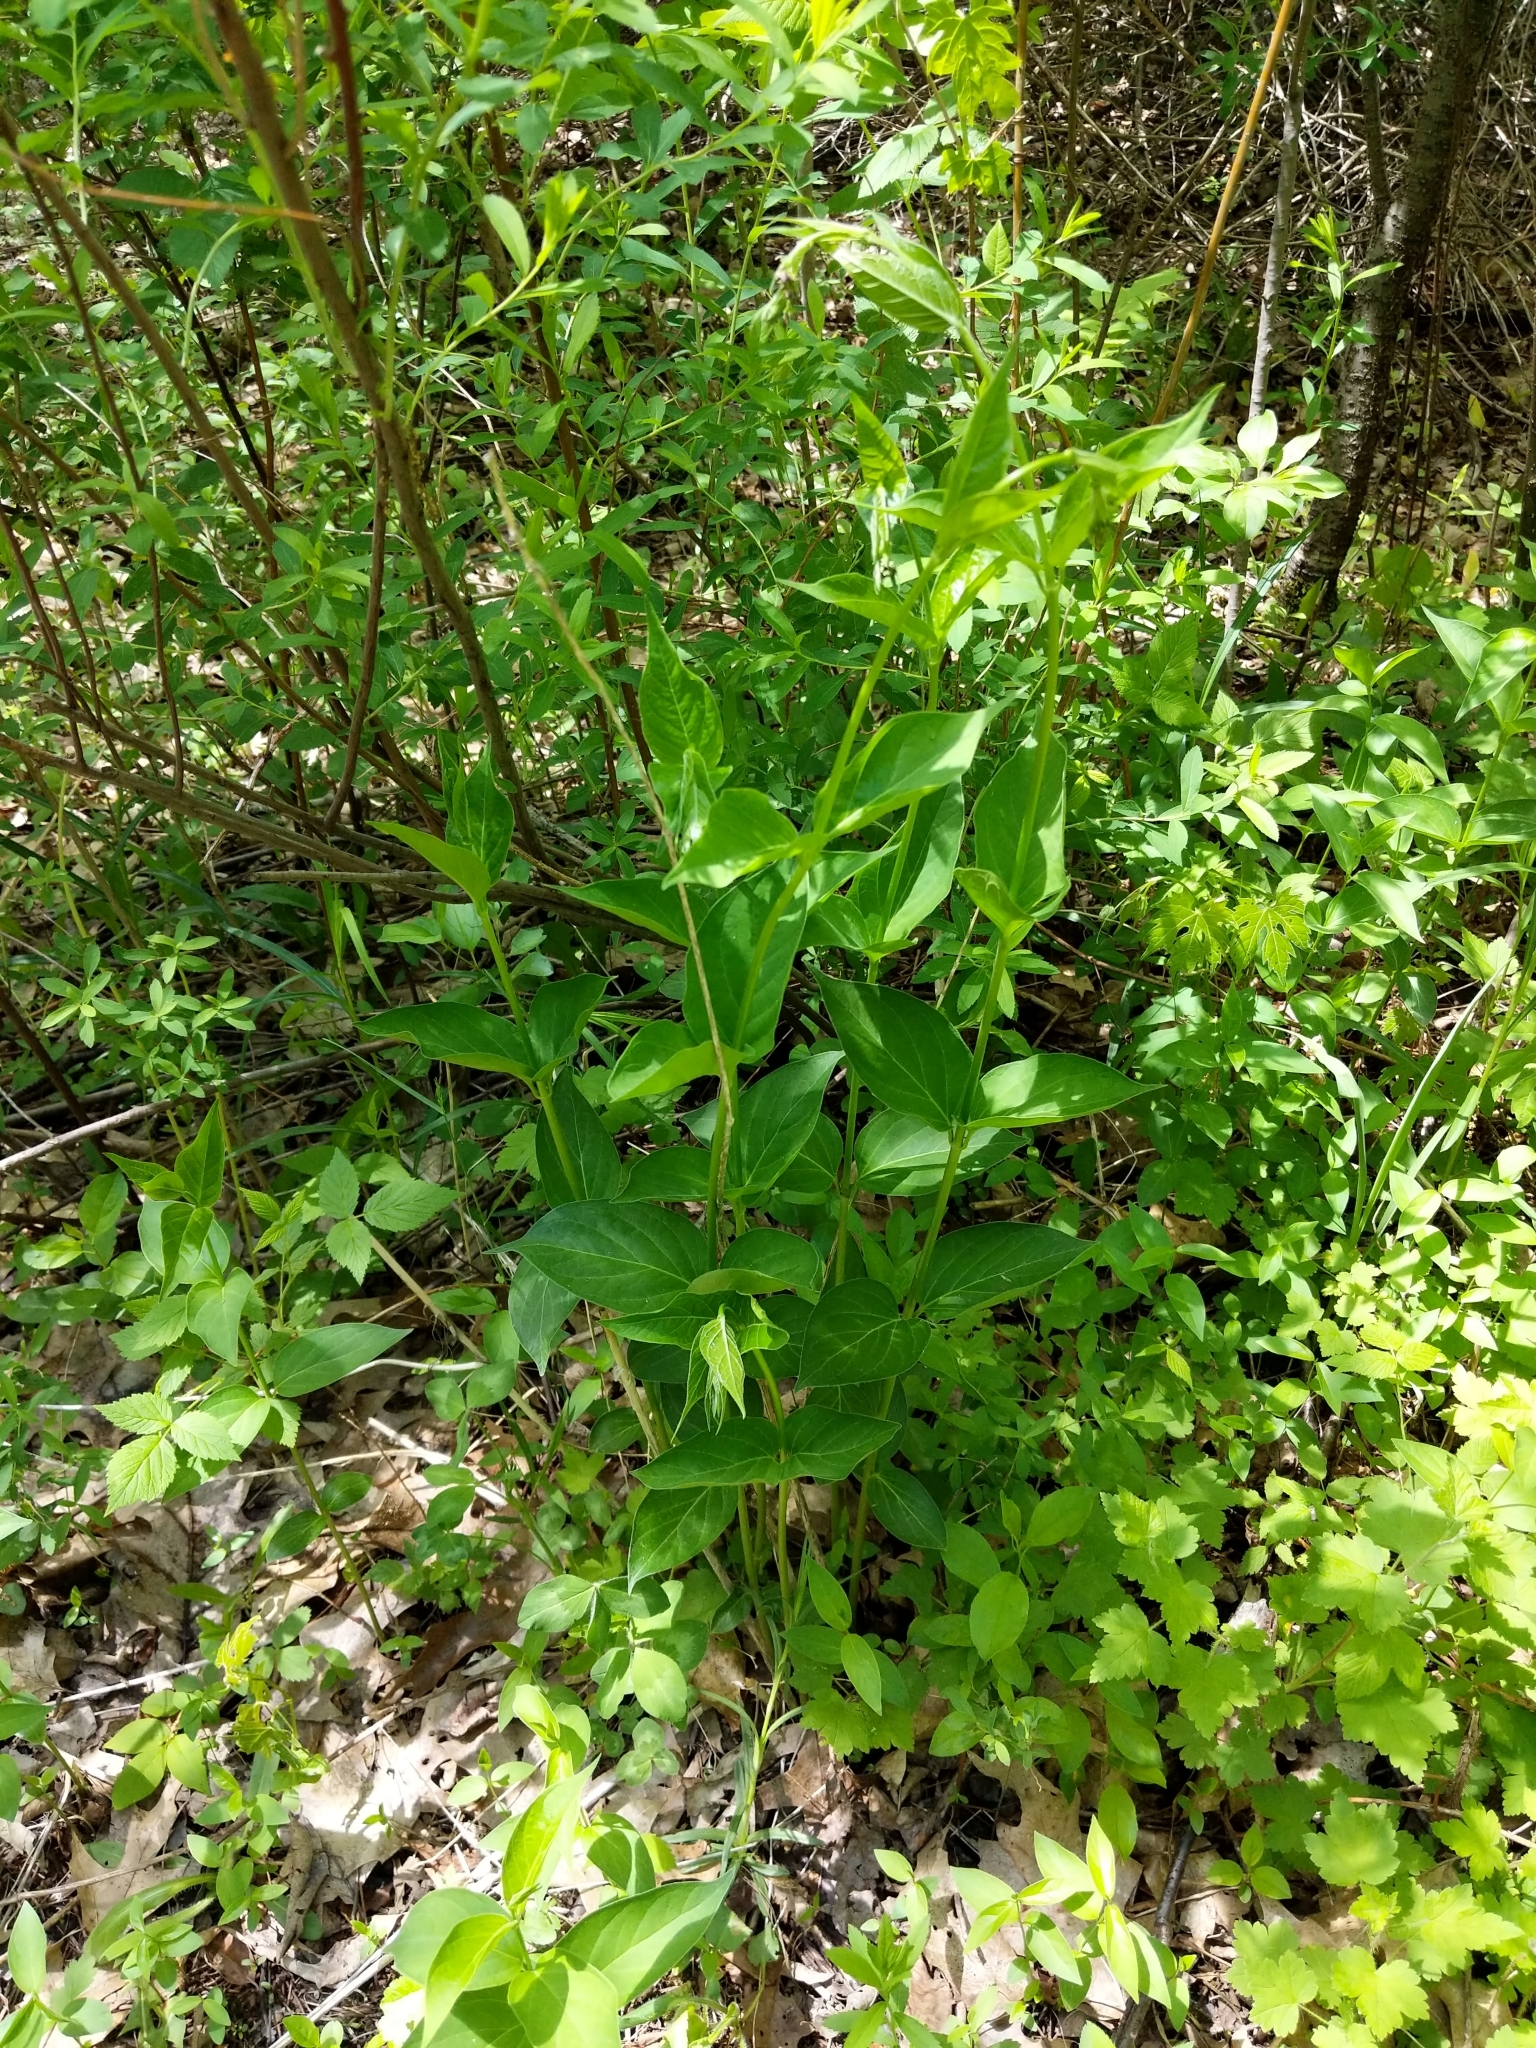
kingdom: Plantae
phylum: Tracheophyta
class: Magnoliopsida
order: Gentianales
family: Apocynaceae
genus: Vincetoxicum
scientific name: Vincetoxicum rossicum
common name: Dog-strangling vine
